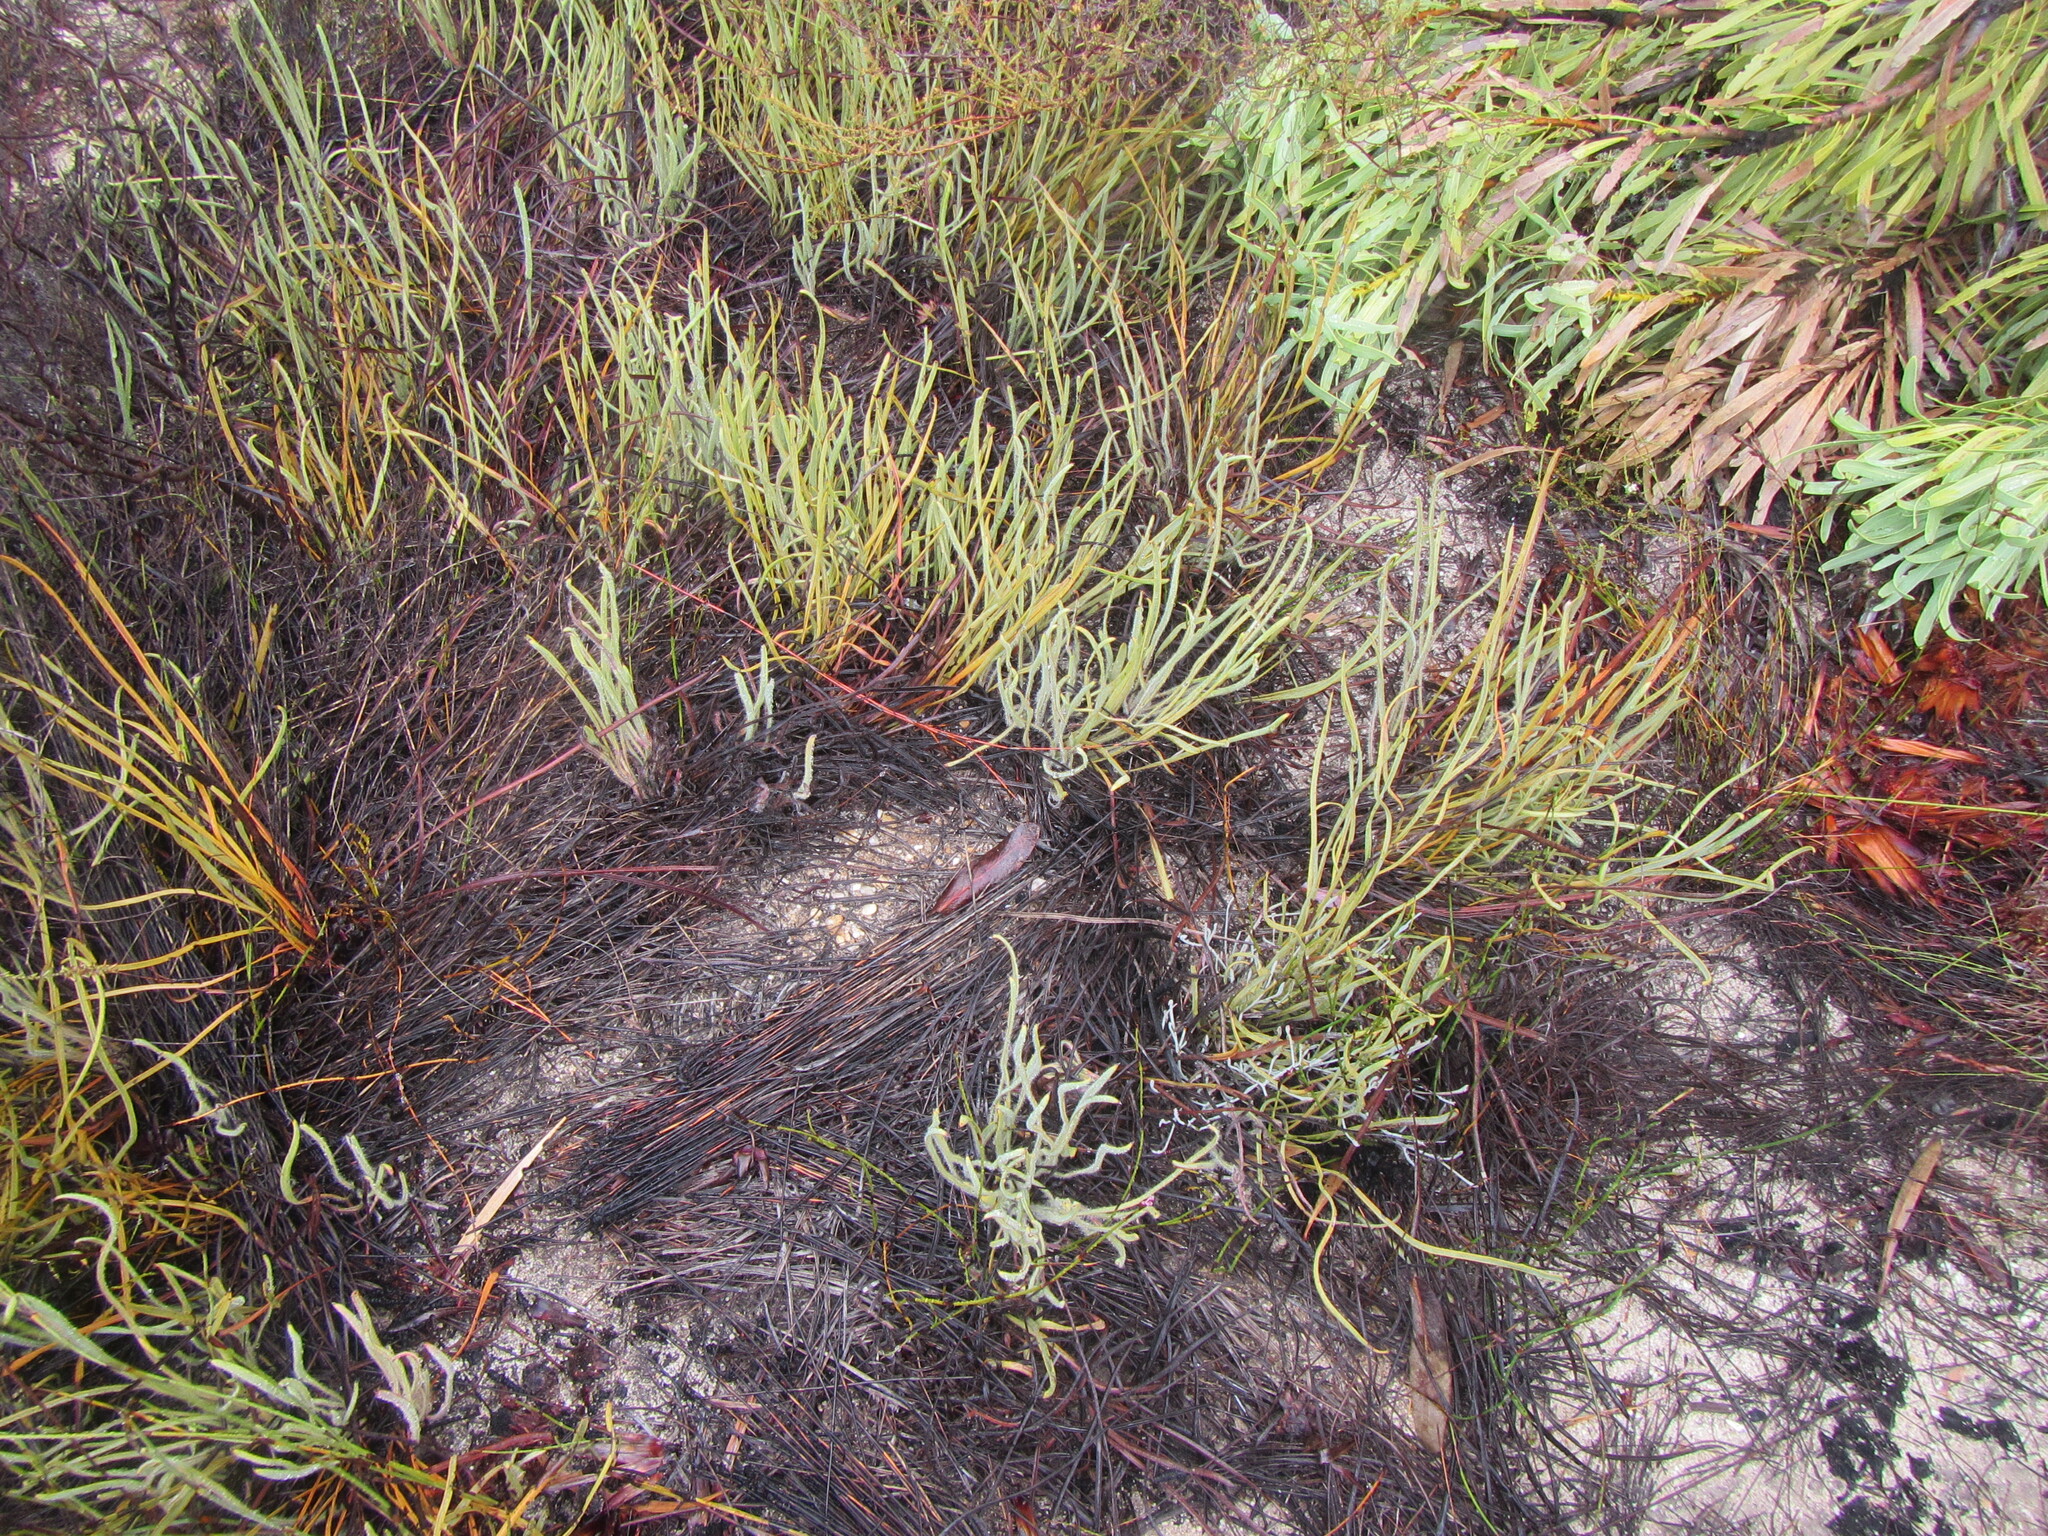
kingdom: Plantae
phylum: Tracheophyta
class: Magnoliopsida
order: Proteales
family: Proteaceae
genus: Protea
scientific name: Protea piscina
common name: Visgat sugarbush
